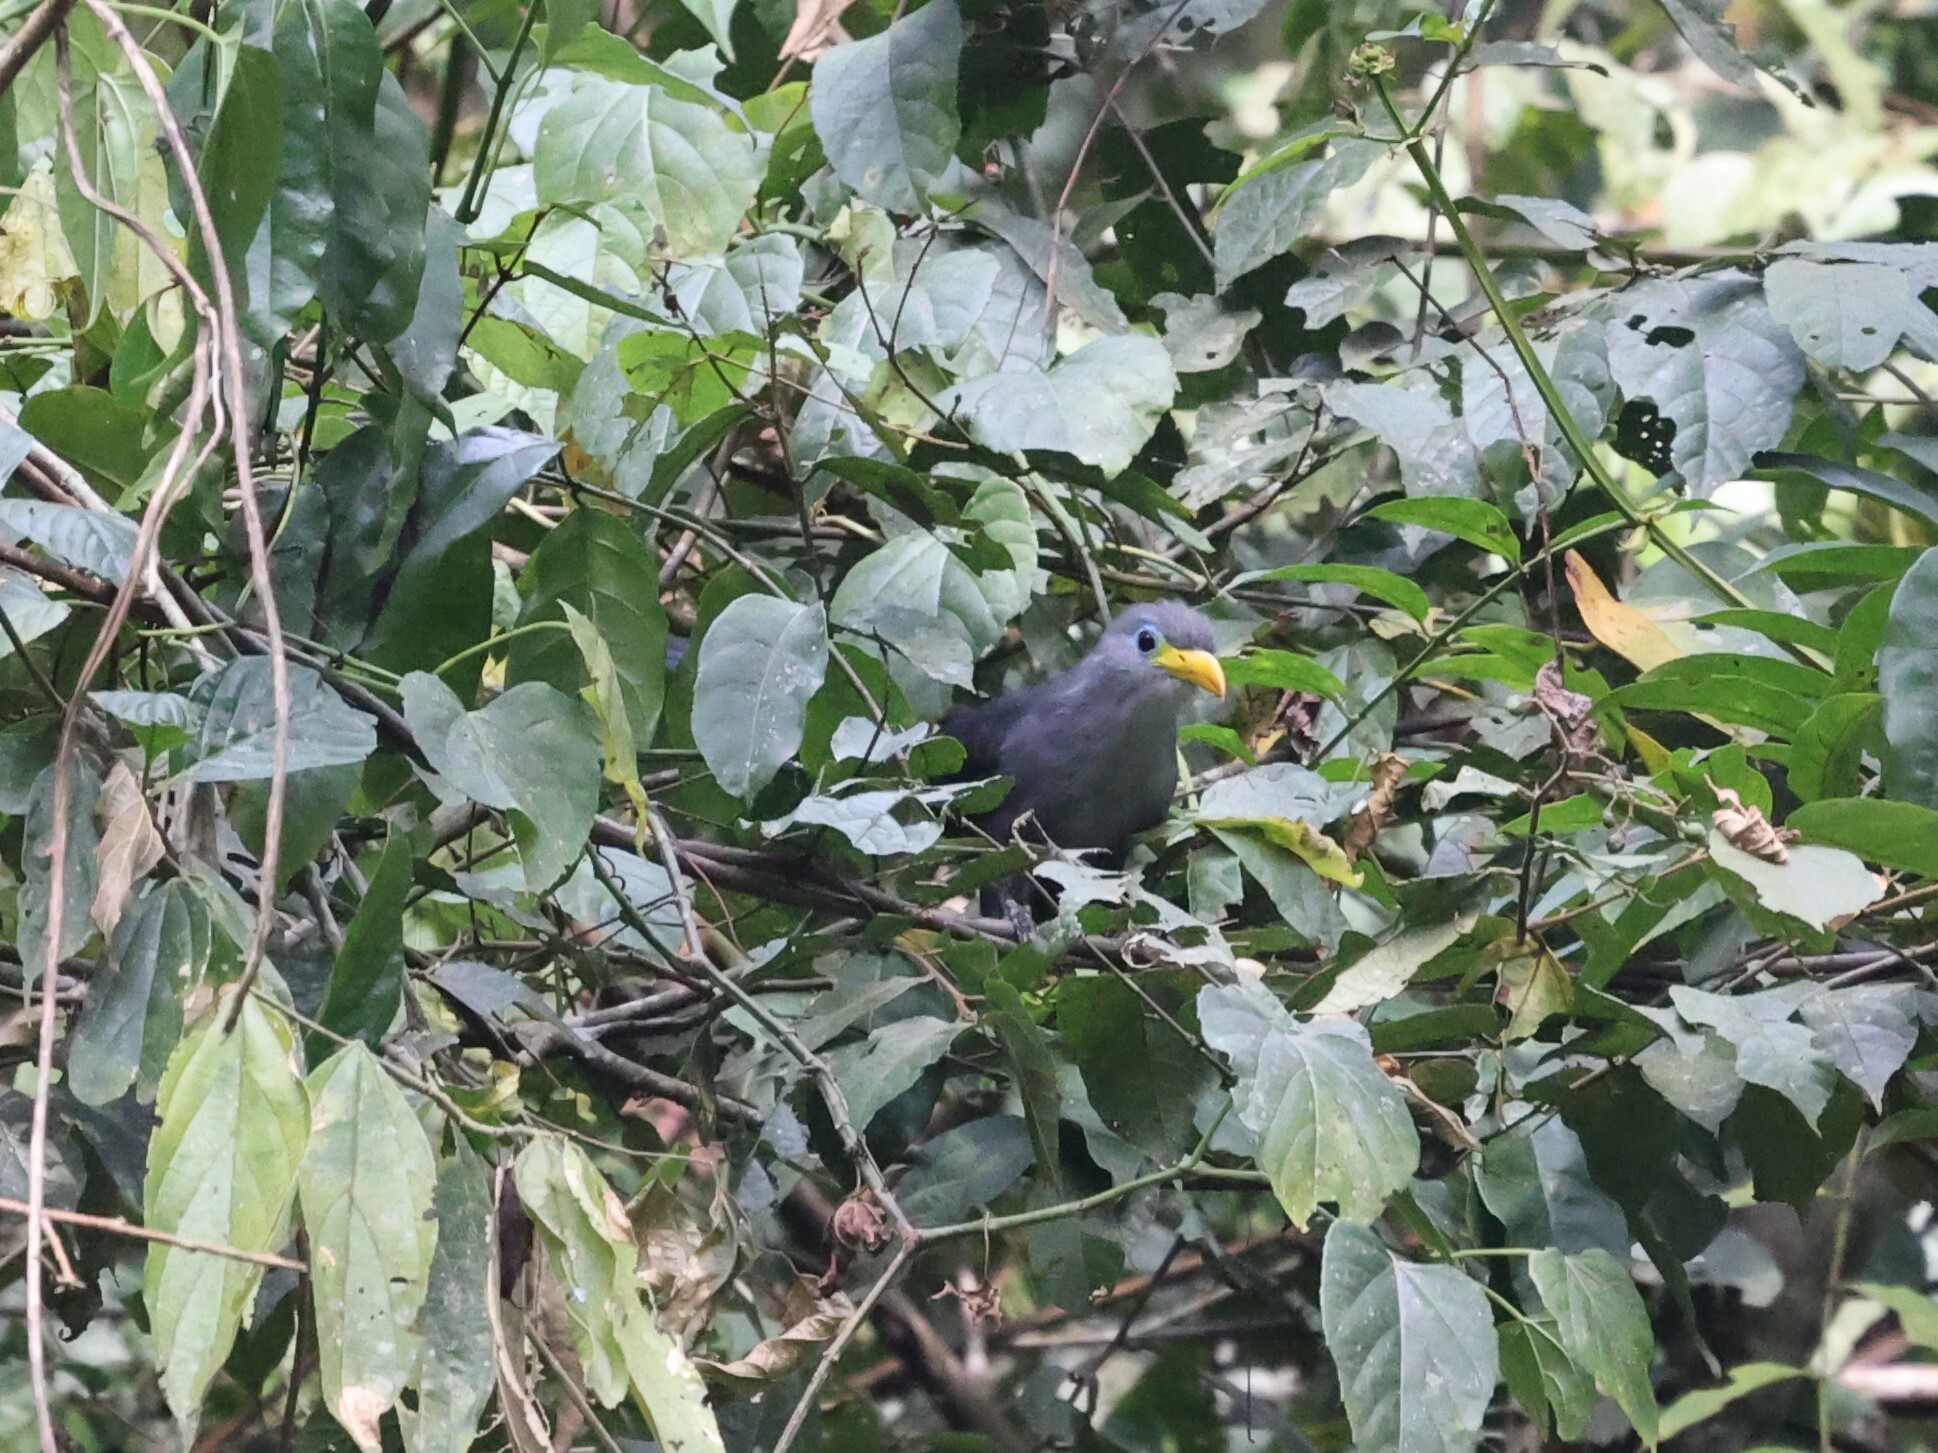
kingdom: Animalia
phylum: Chordata
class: Aves
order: Cuculiformes
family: Cuculidae
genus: Ceuthmochares
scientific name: Ceuthmochares aereus
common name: Blue malkoha
